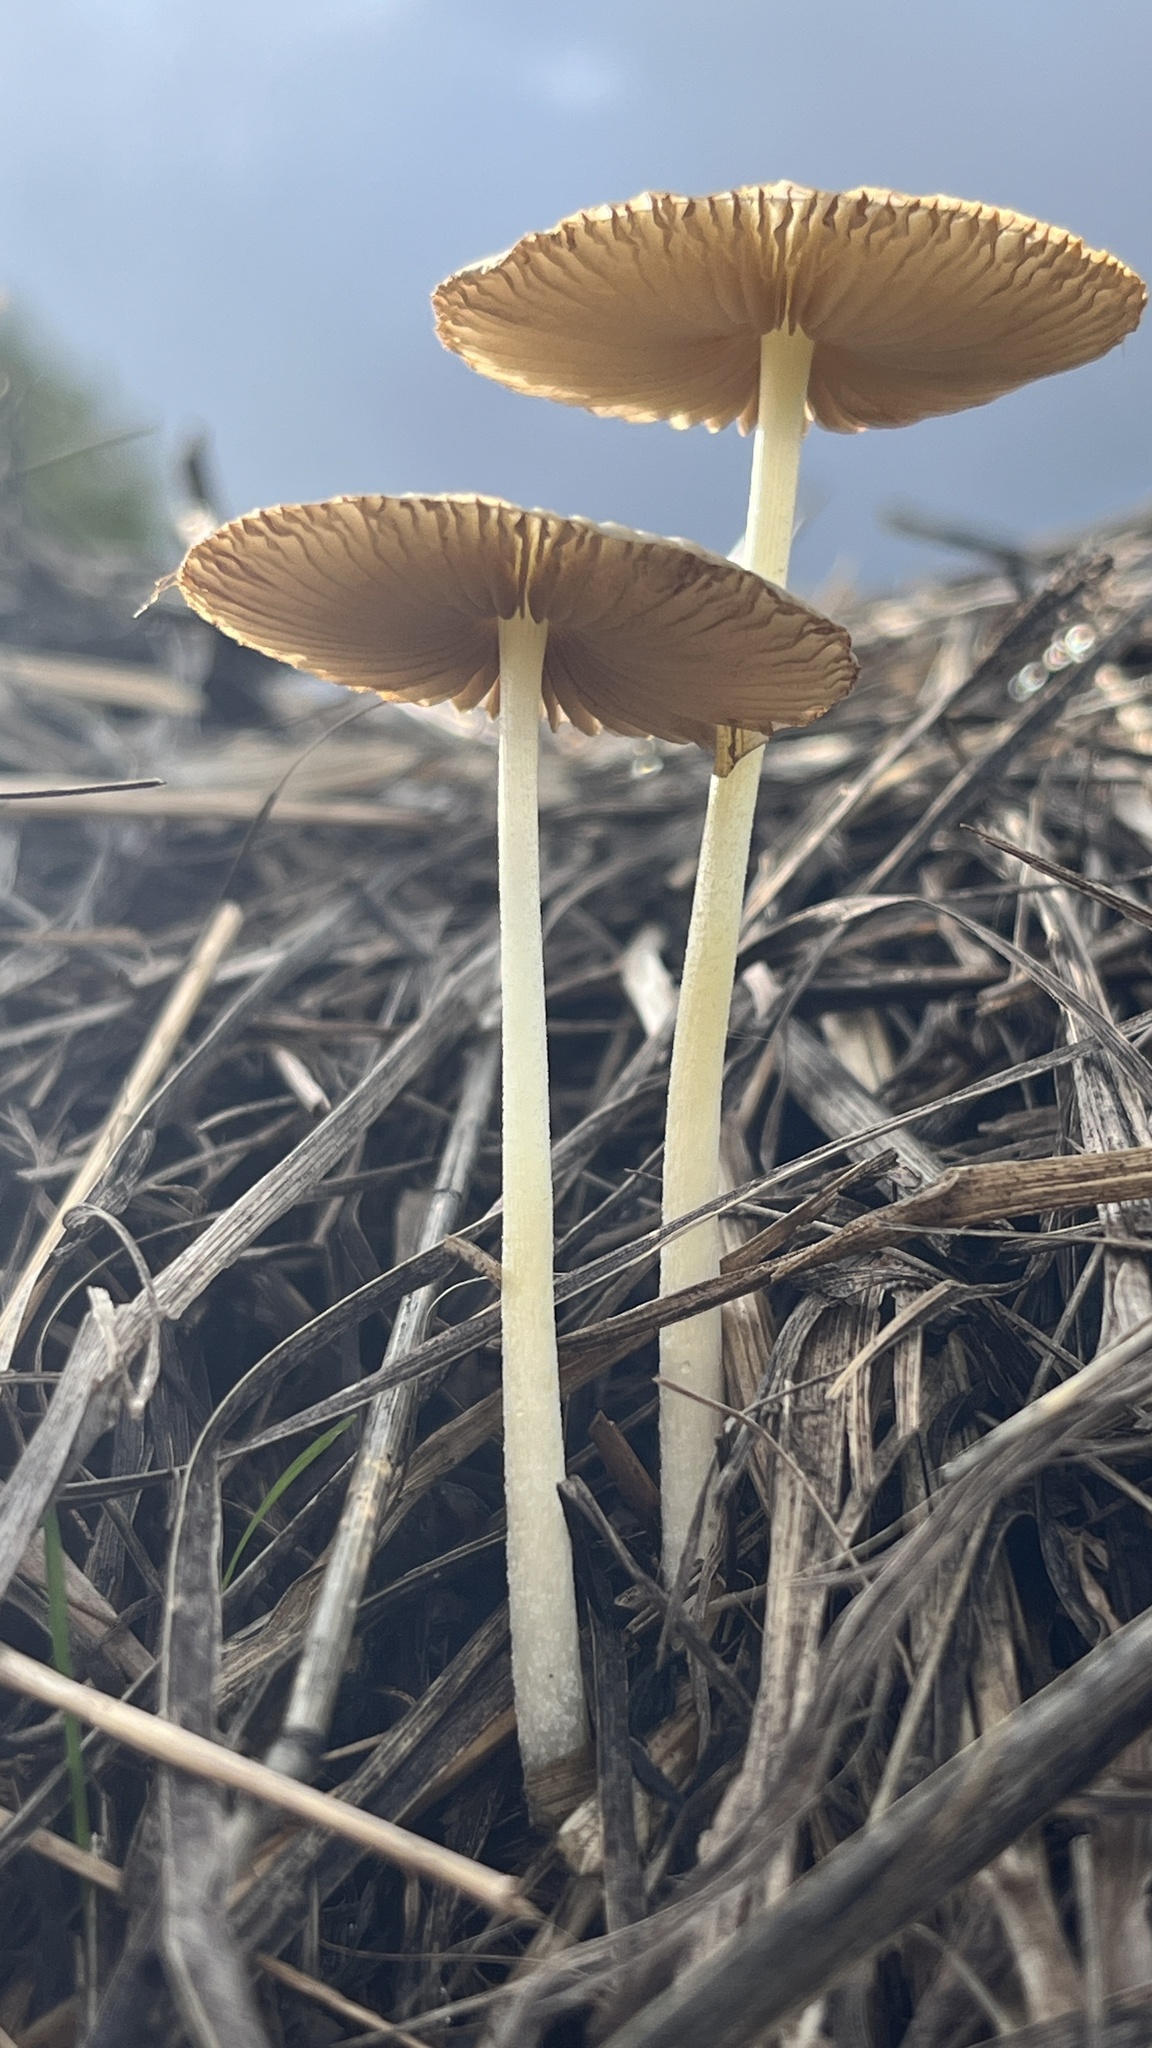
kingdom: Fungi
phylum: Basidiomycota
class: Agaricomycetes
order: Agaricales
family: Bolbitiaceae
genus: Bolbitius
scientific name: Bolbitius titubans
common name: Yellow fieldcap
